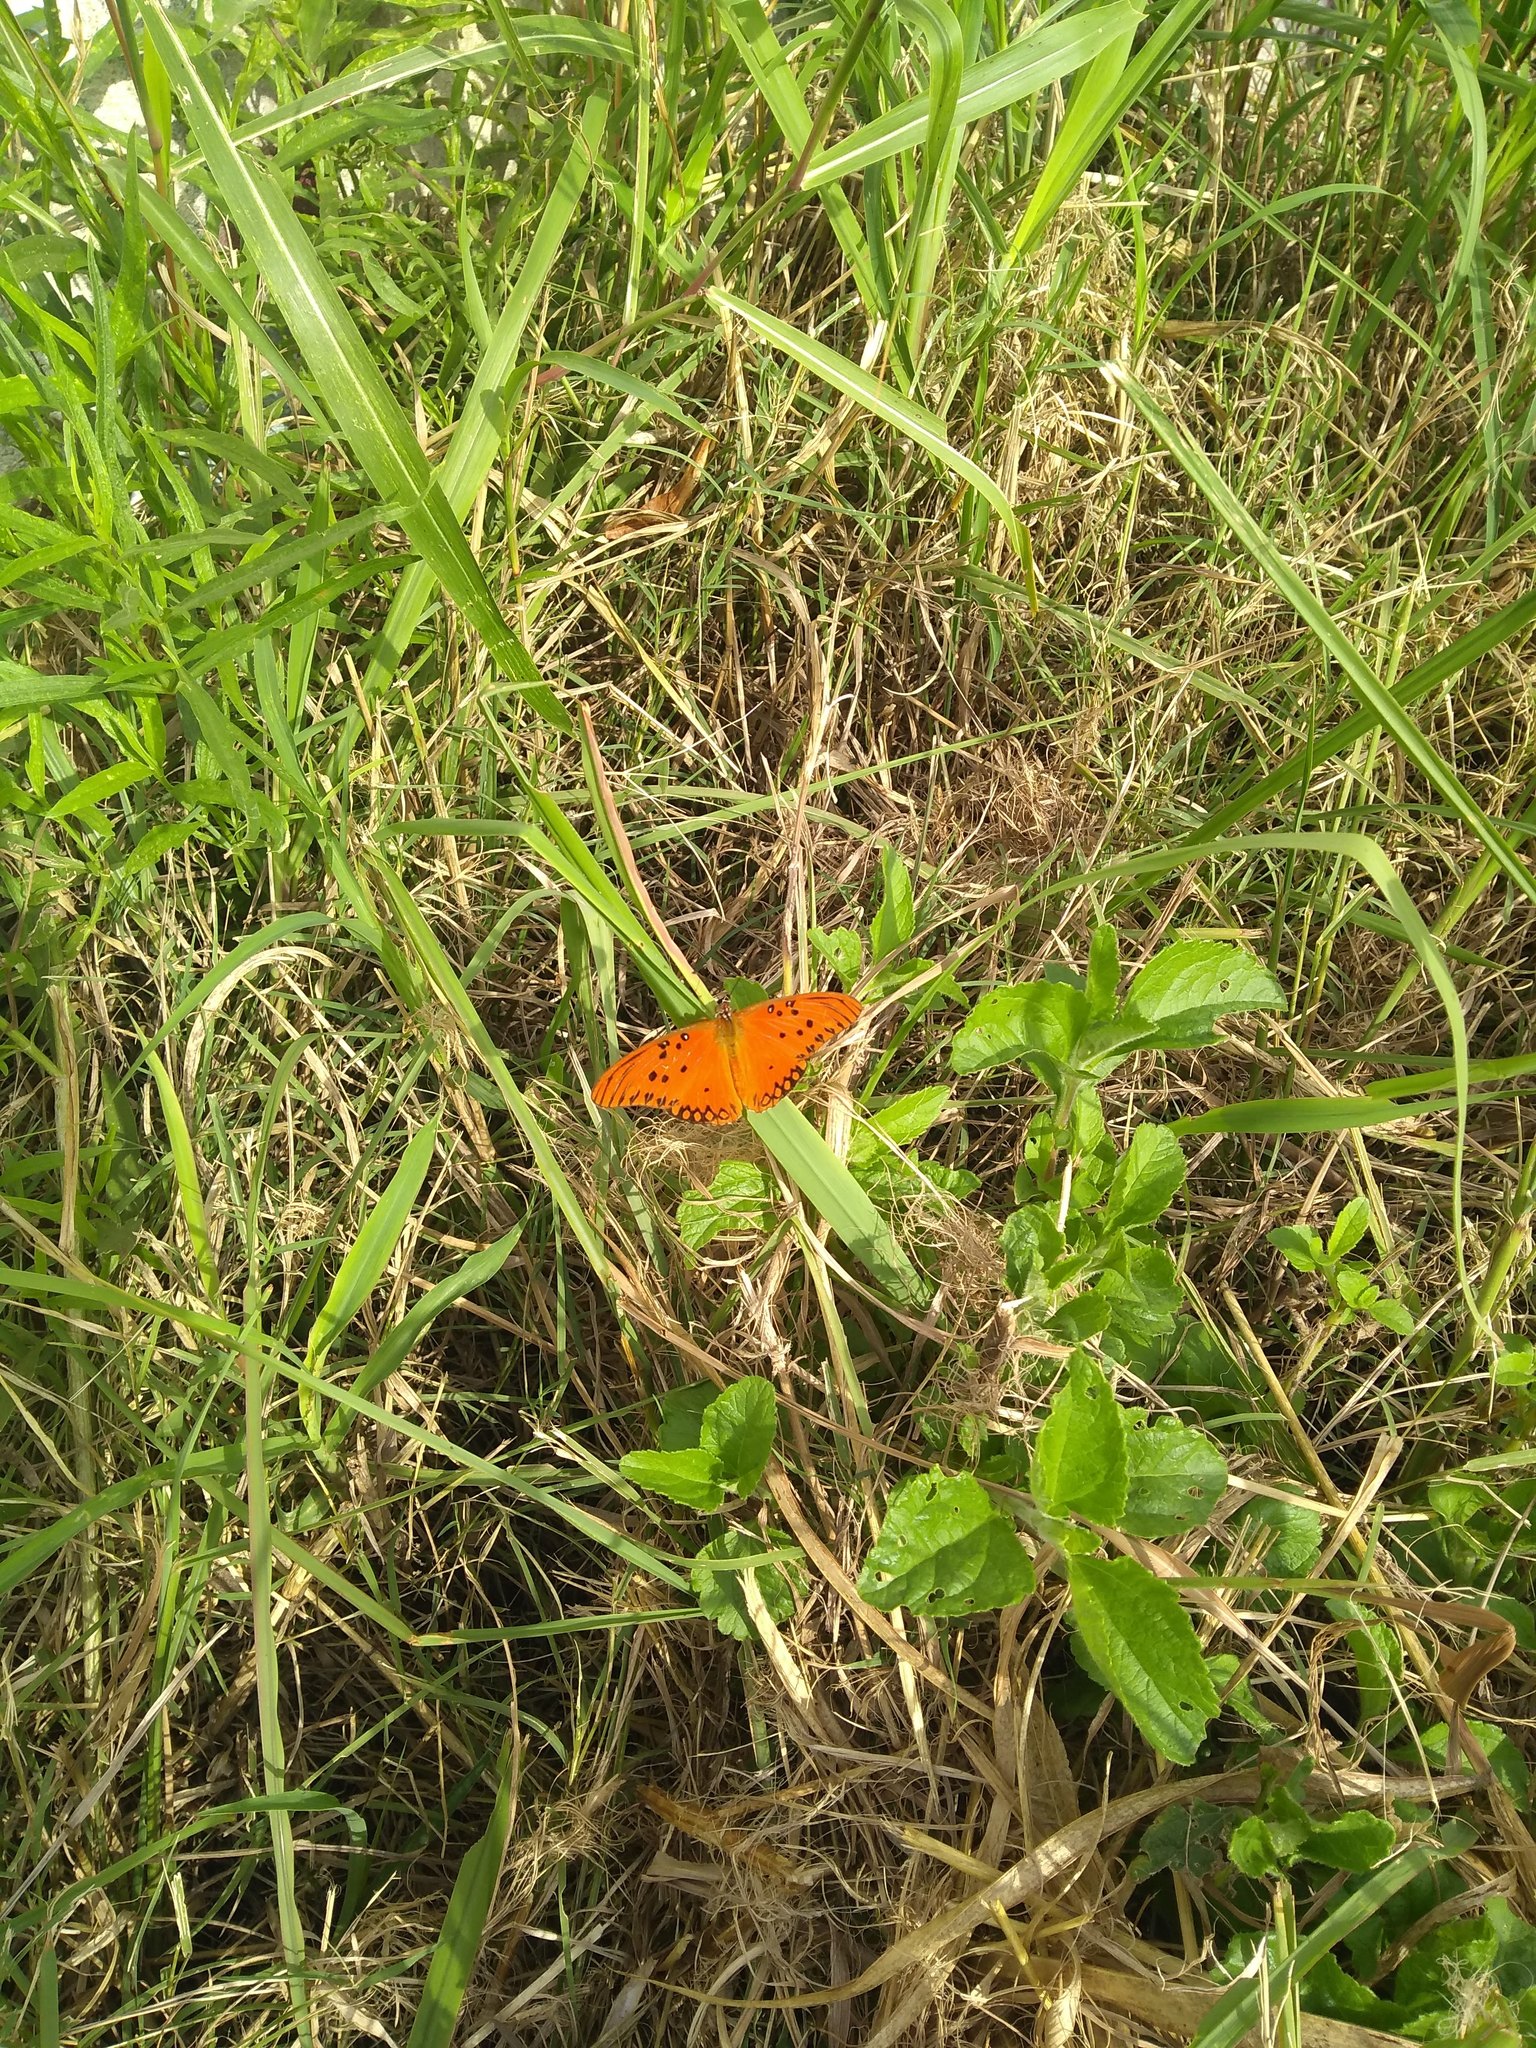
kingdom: Animalia
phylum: Arthropoda
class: Insecta
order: Lepidoptera
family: Nymphalidae
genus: Dione
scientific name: Dione vanillae
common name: Gulf fritillary
